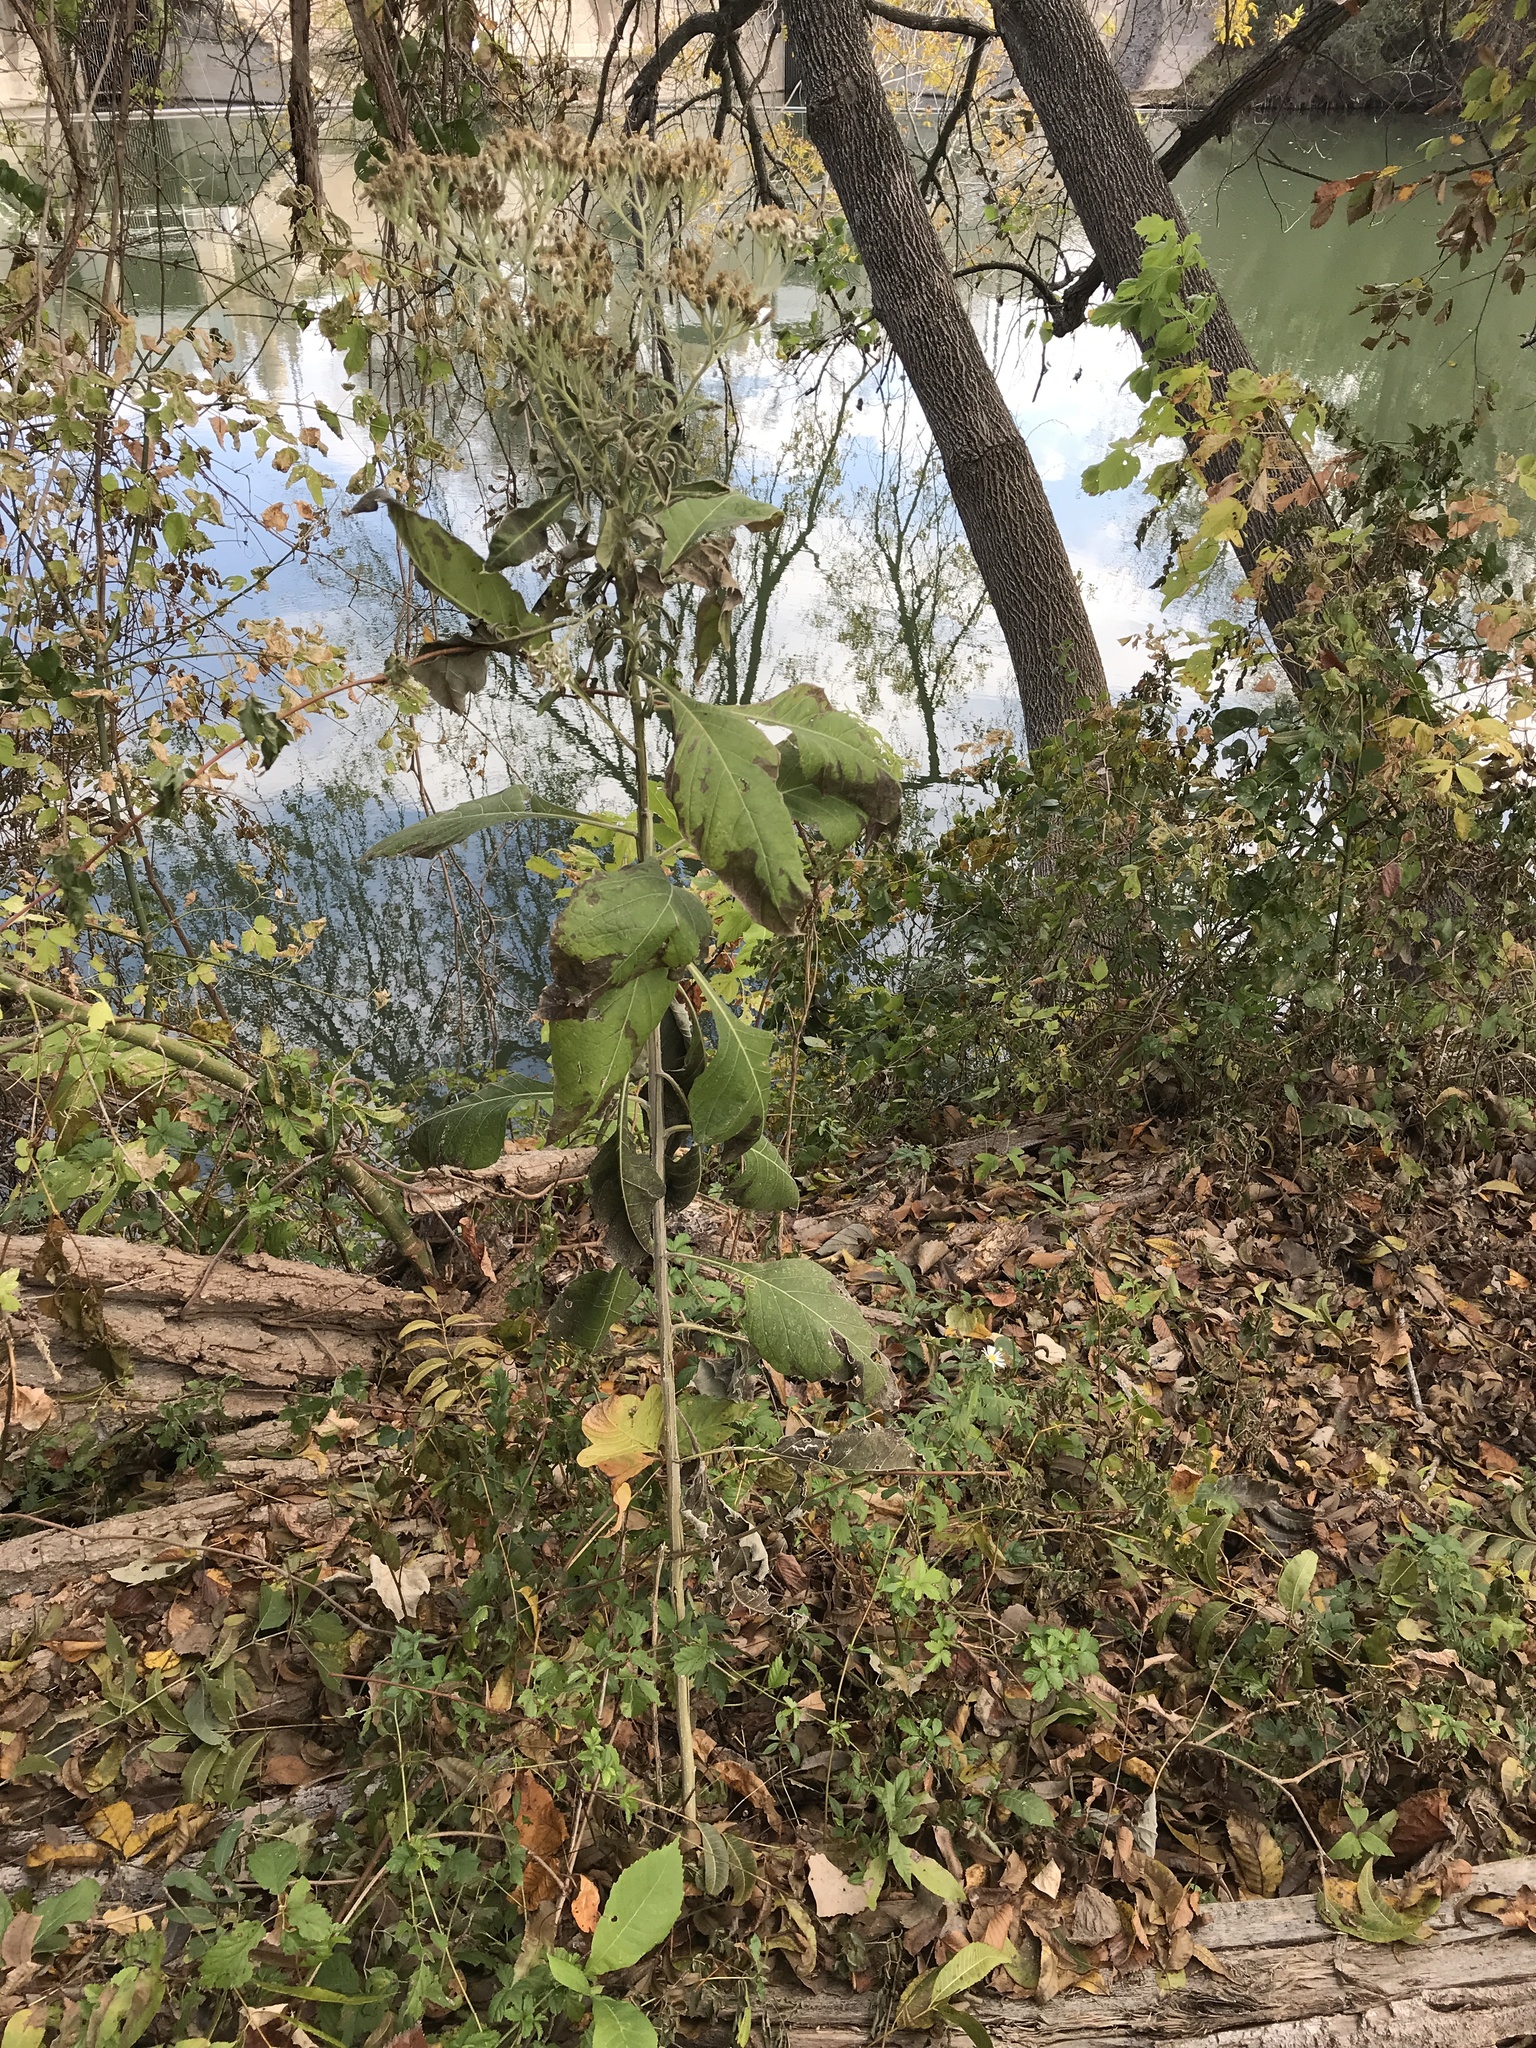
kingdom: Plantae
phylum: Tracheophyta
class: Magnoliopsida
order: Asterales
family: Asteraceae
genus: Verbesina
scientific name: Verbesina virginica
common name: Frostweed
